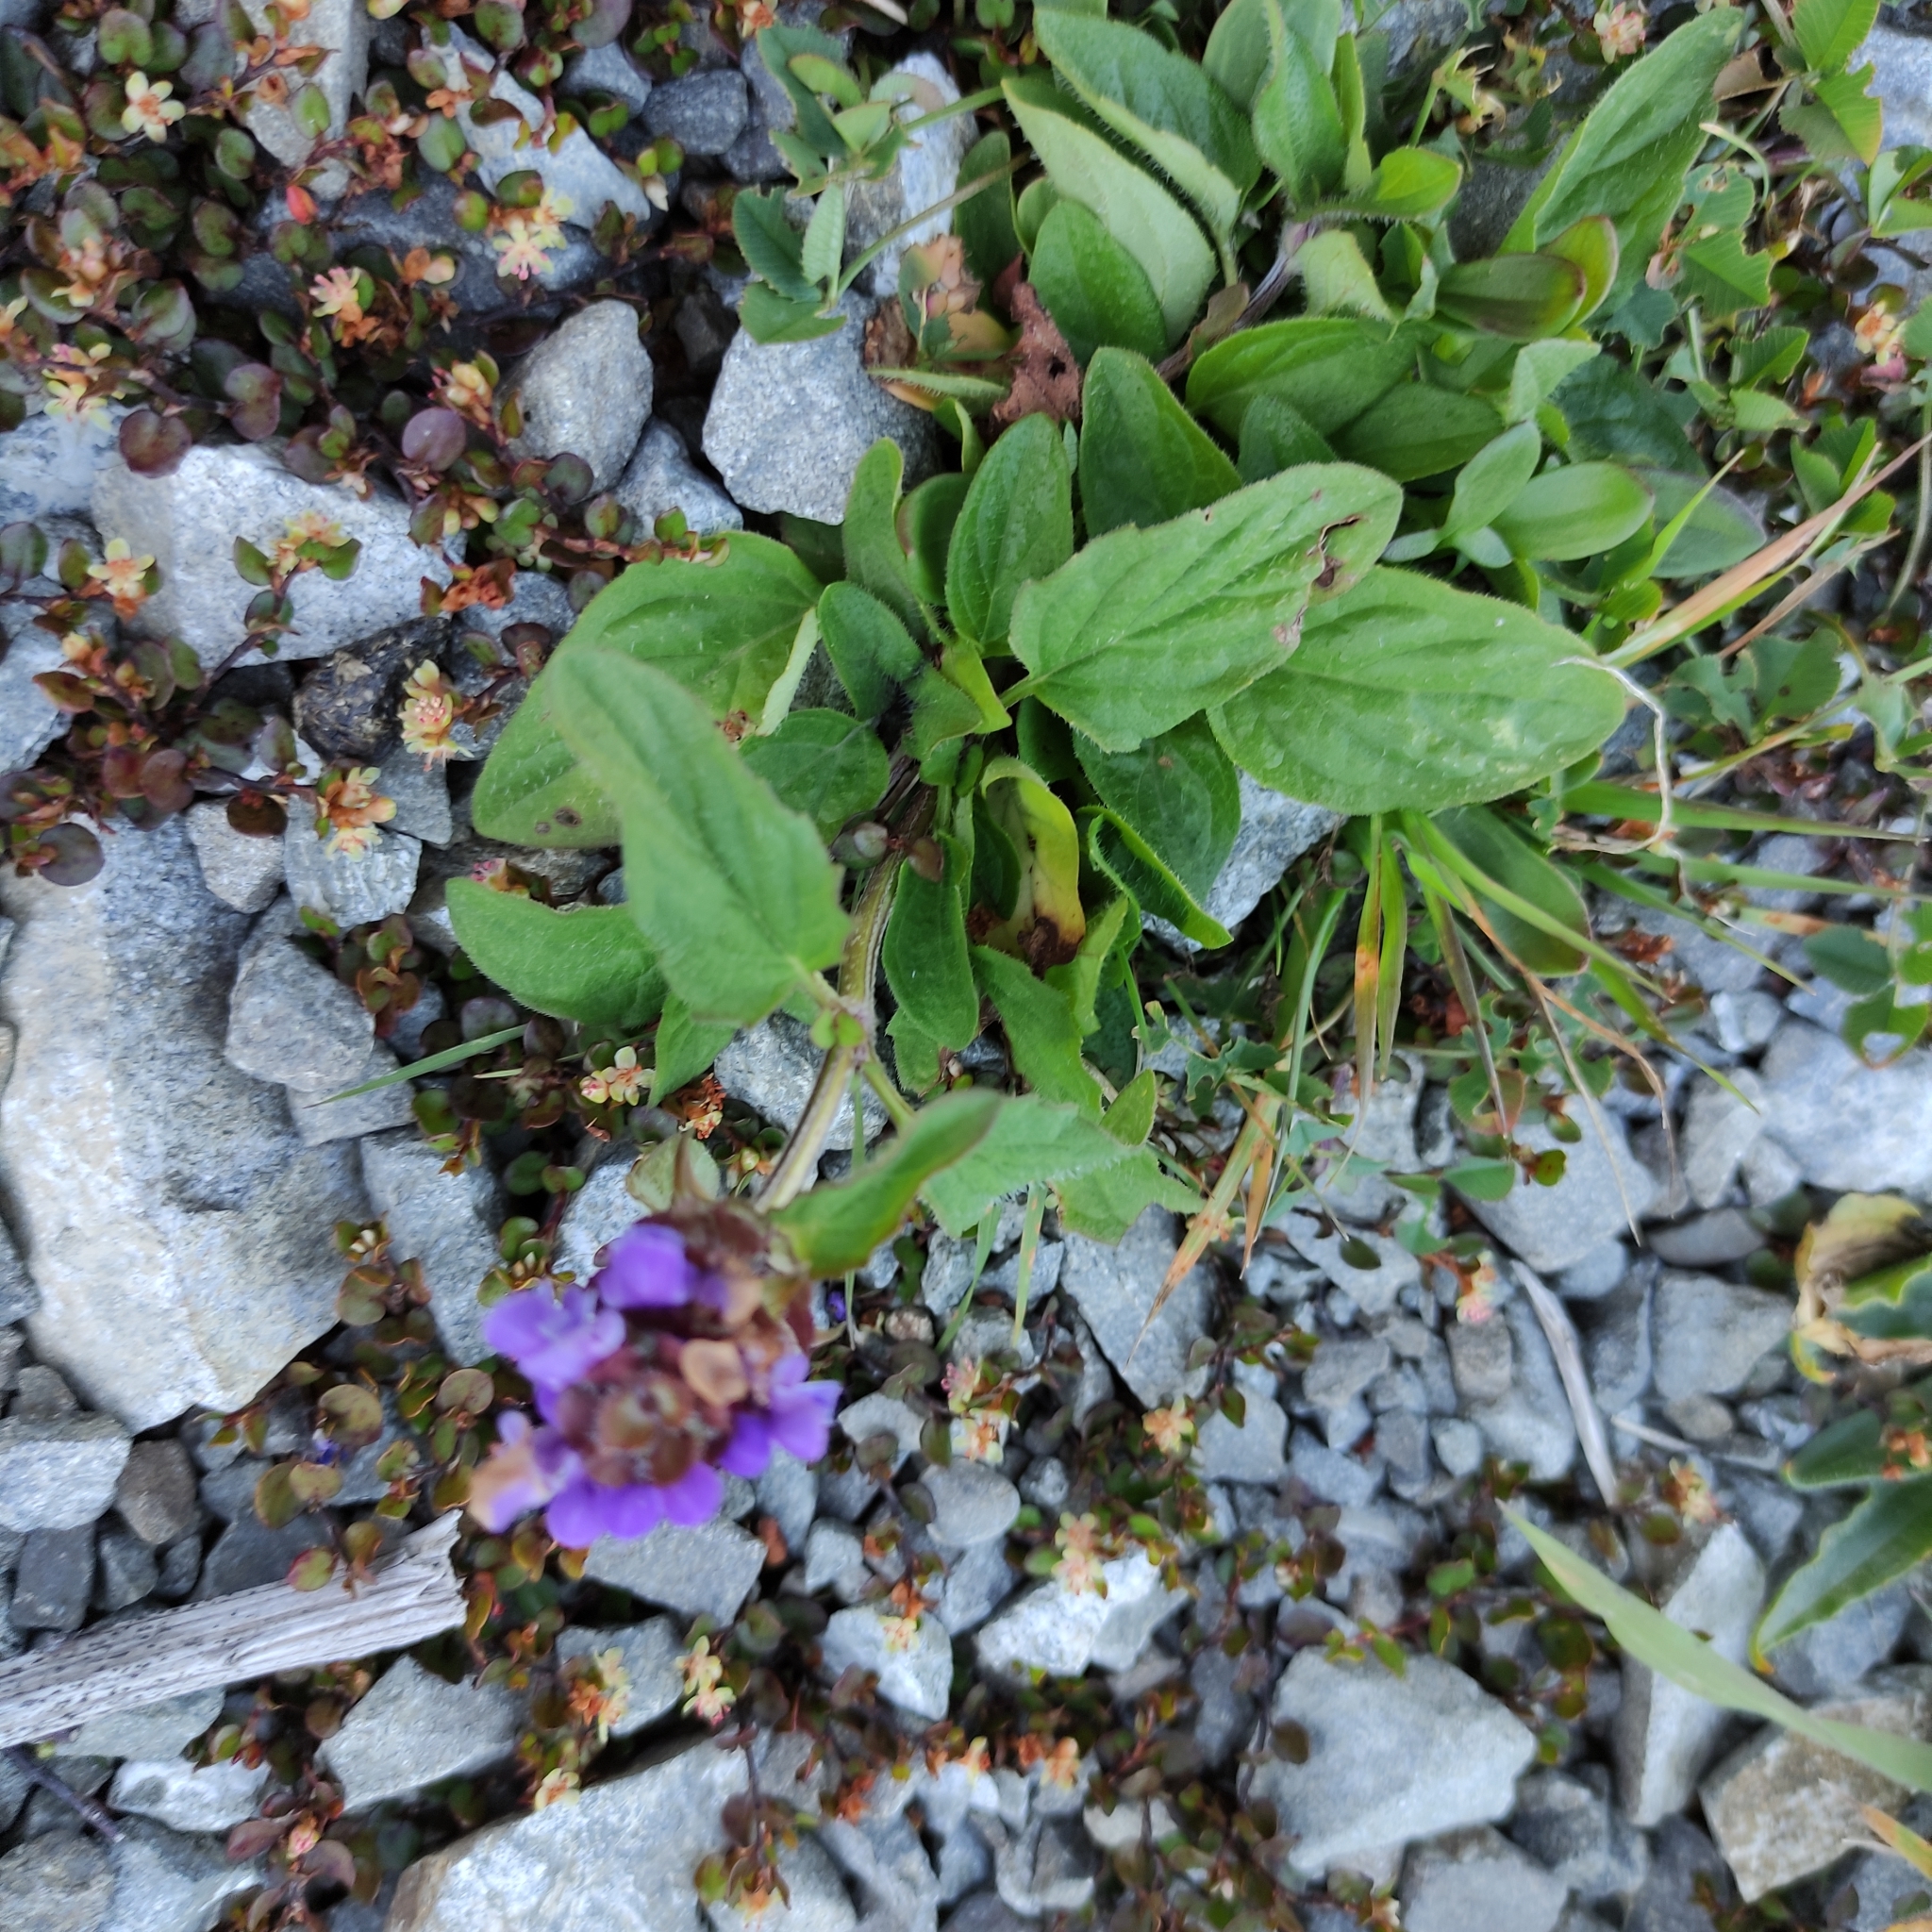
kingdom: Plantae
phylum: Tracheophyta
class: Magnoliopsida
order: Lamiales
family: Lamiaceae
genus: Prunella
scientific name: Prunella vulgaris
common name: Heal-all
